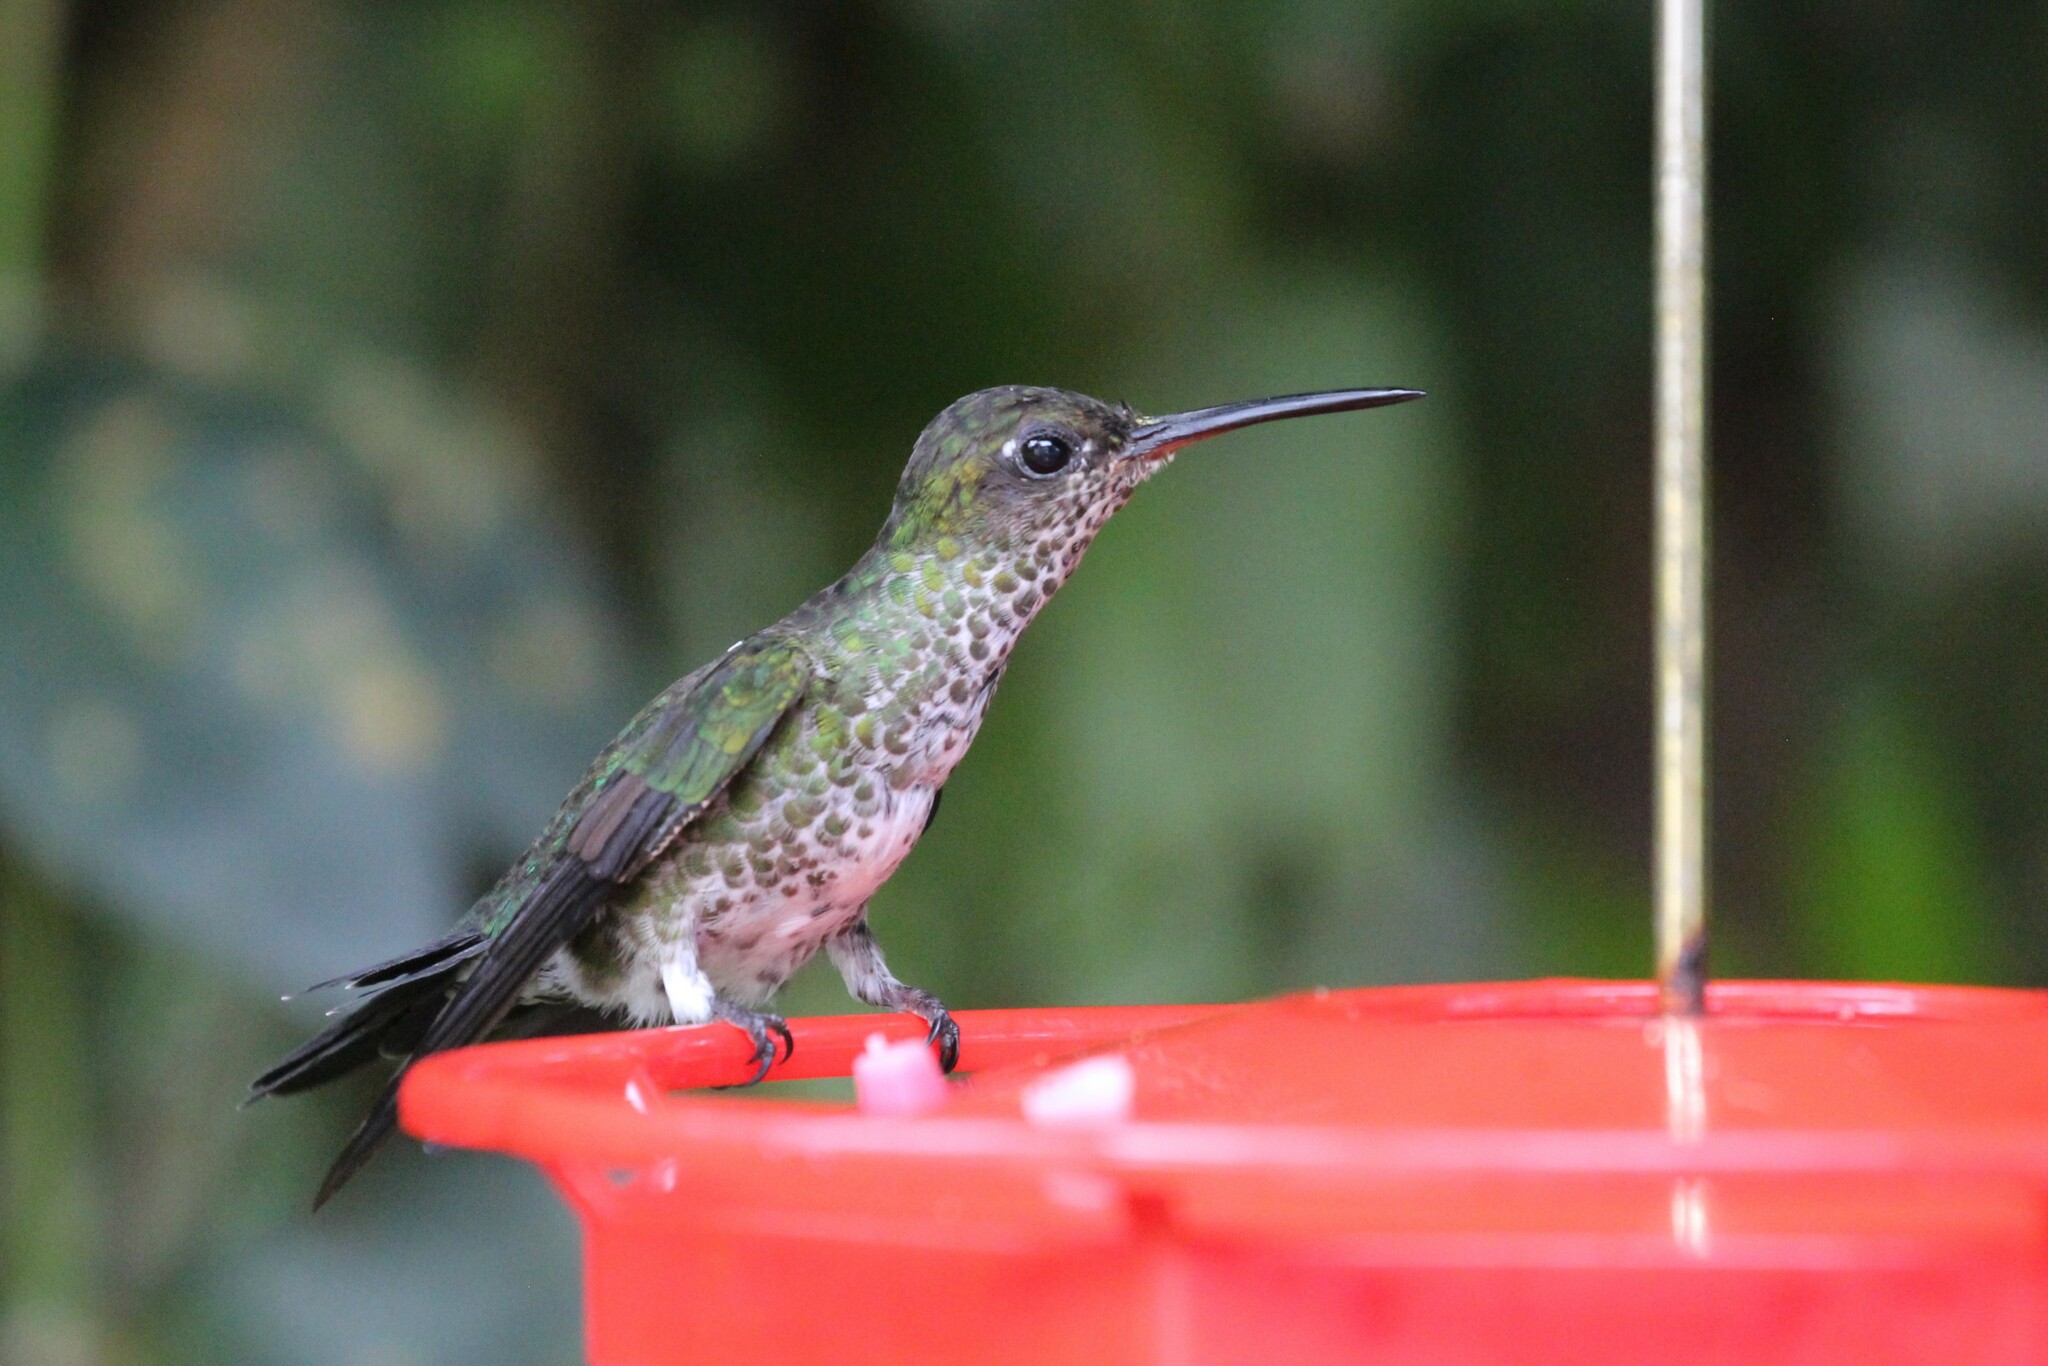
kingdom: Animalia
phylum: Chordata
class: Aves
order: Apodiformes
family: Trochilidae
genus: Taphrospilus
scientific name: Taphrospilus hypostictus
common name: Many-spotted hummingbird
